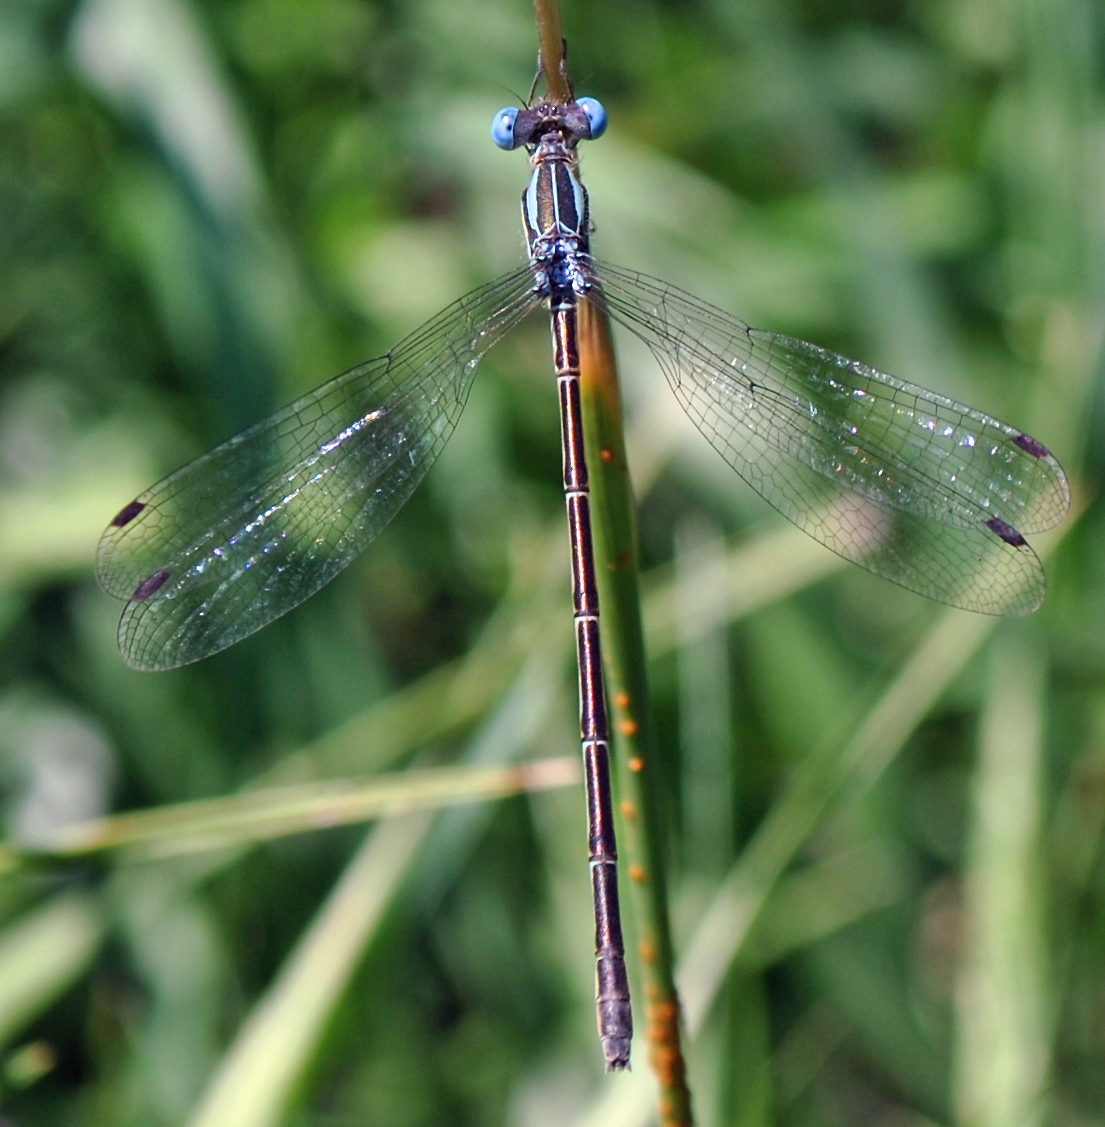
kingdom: Animalia
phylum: Arthropoda
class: Insecta
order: Odonata
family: Lestidae
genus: Lestes
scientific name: Lestes rectangularis
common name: Slender spreadwing
